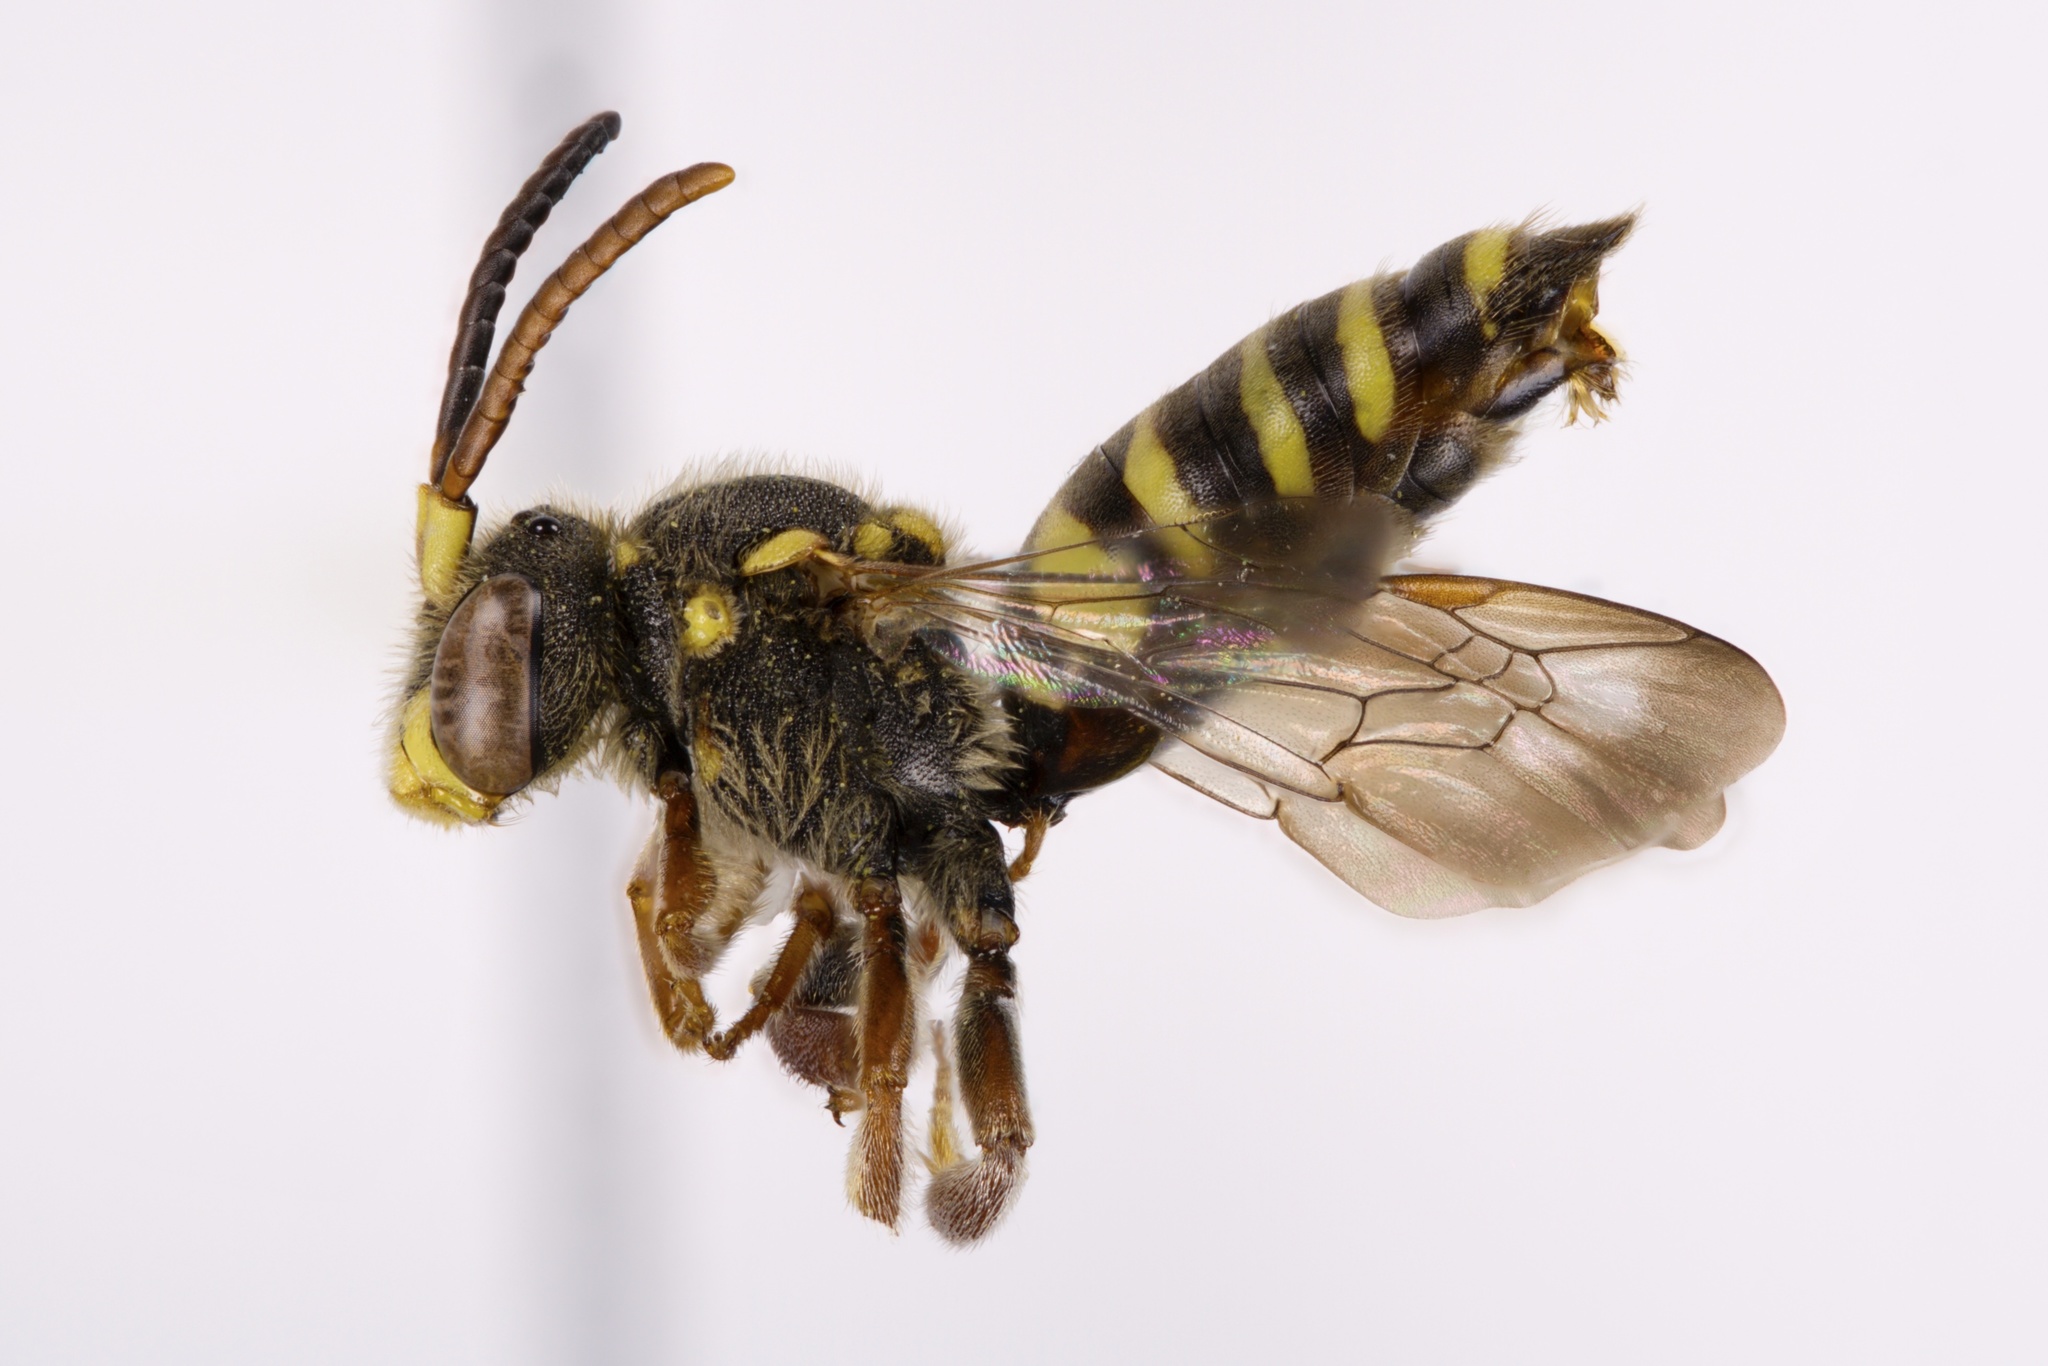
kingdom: Animalia
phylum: Arthropoda
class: Insecta
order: Hymenoptera
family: Apidae
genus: Nomada
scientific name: Nomada rubicunda
